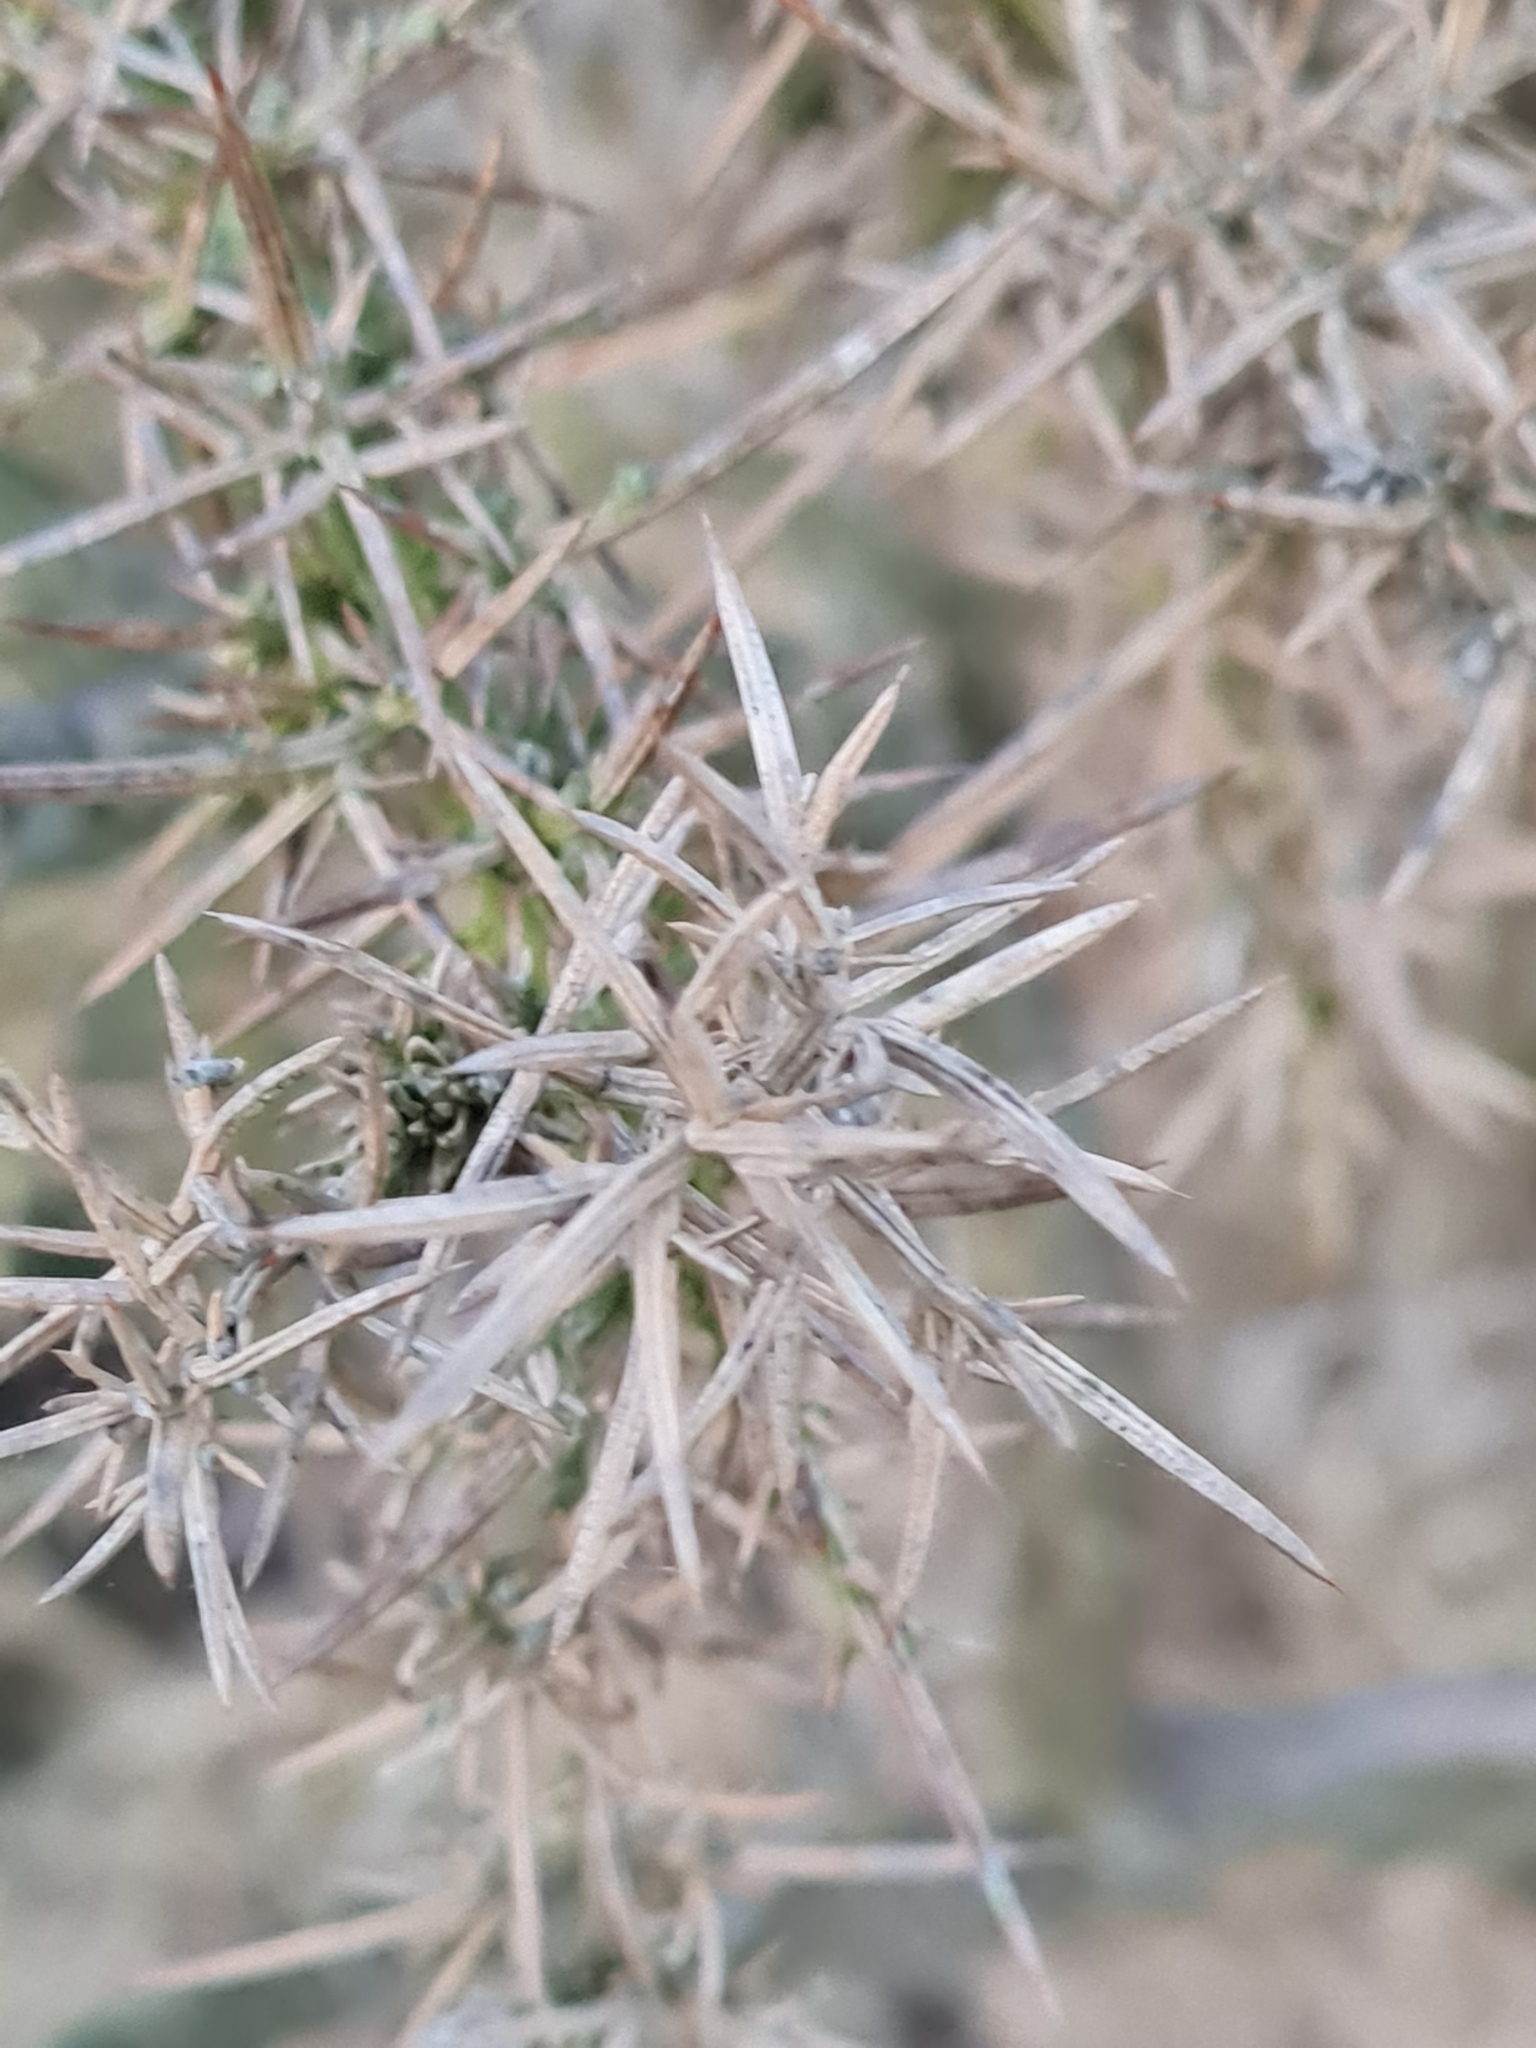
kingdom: Plantae
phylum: Tracheophyta
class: Magnoliopsida
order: Fabales
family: Fabaceae
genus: Ulex
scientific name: Ulex europaeus
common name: Common gorse
